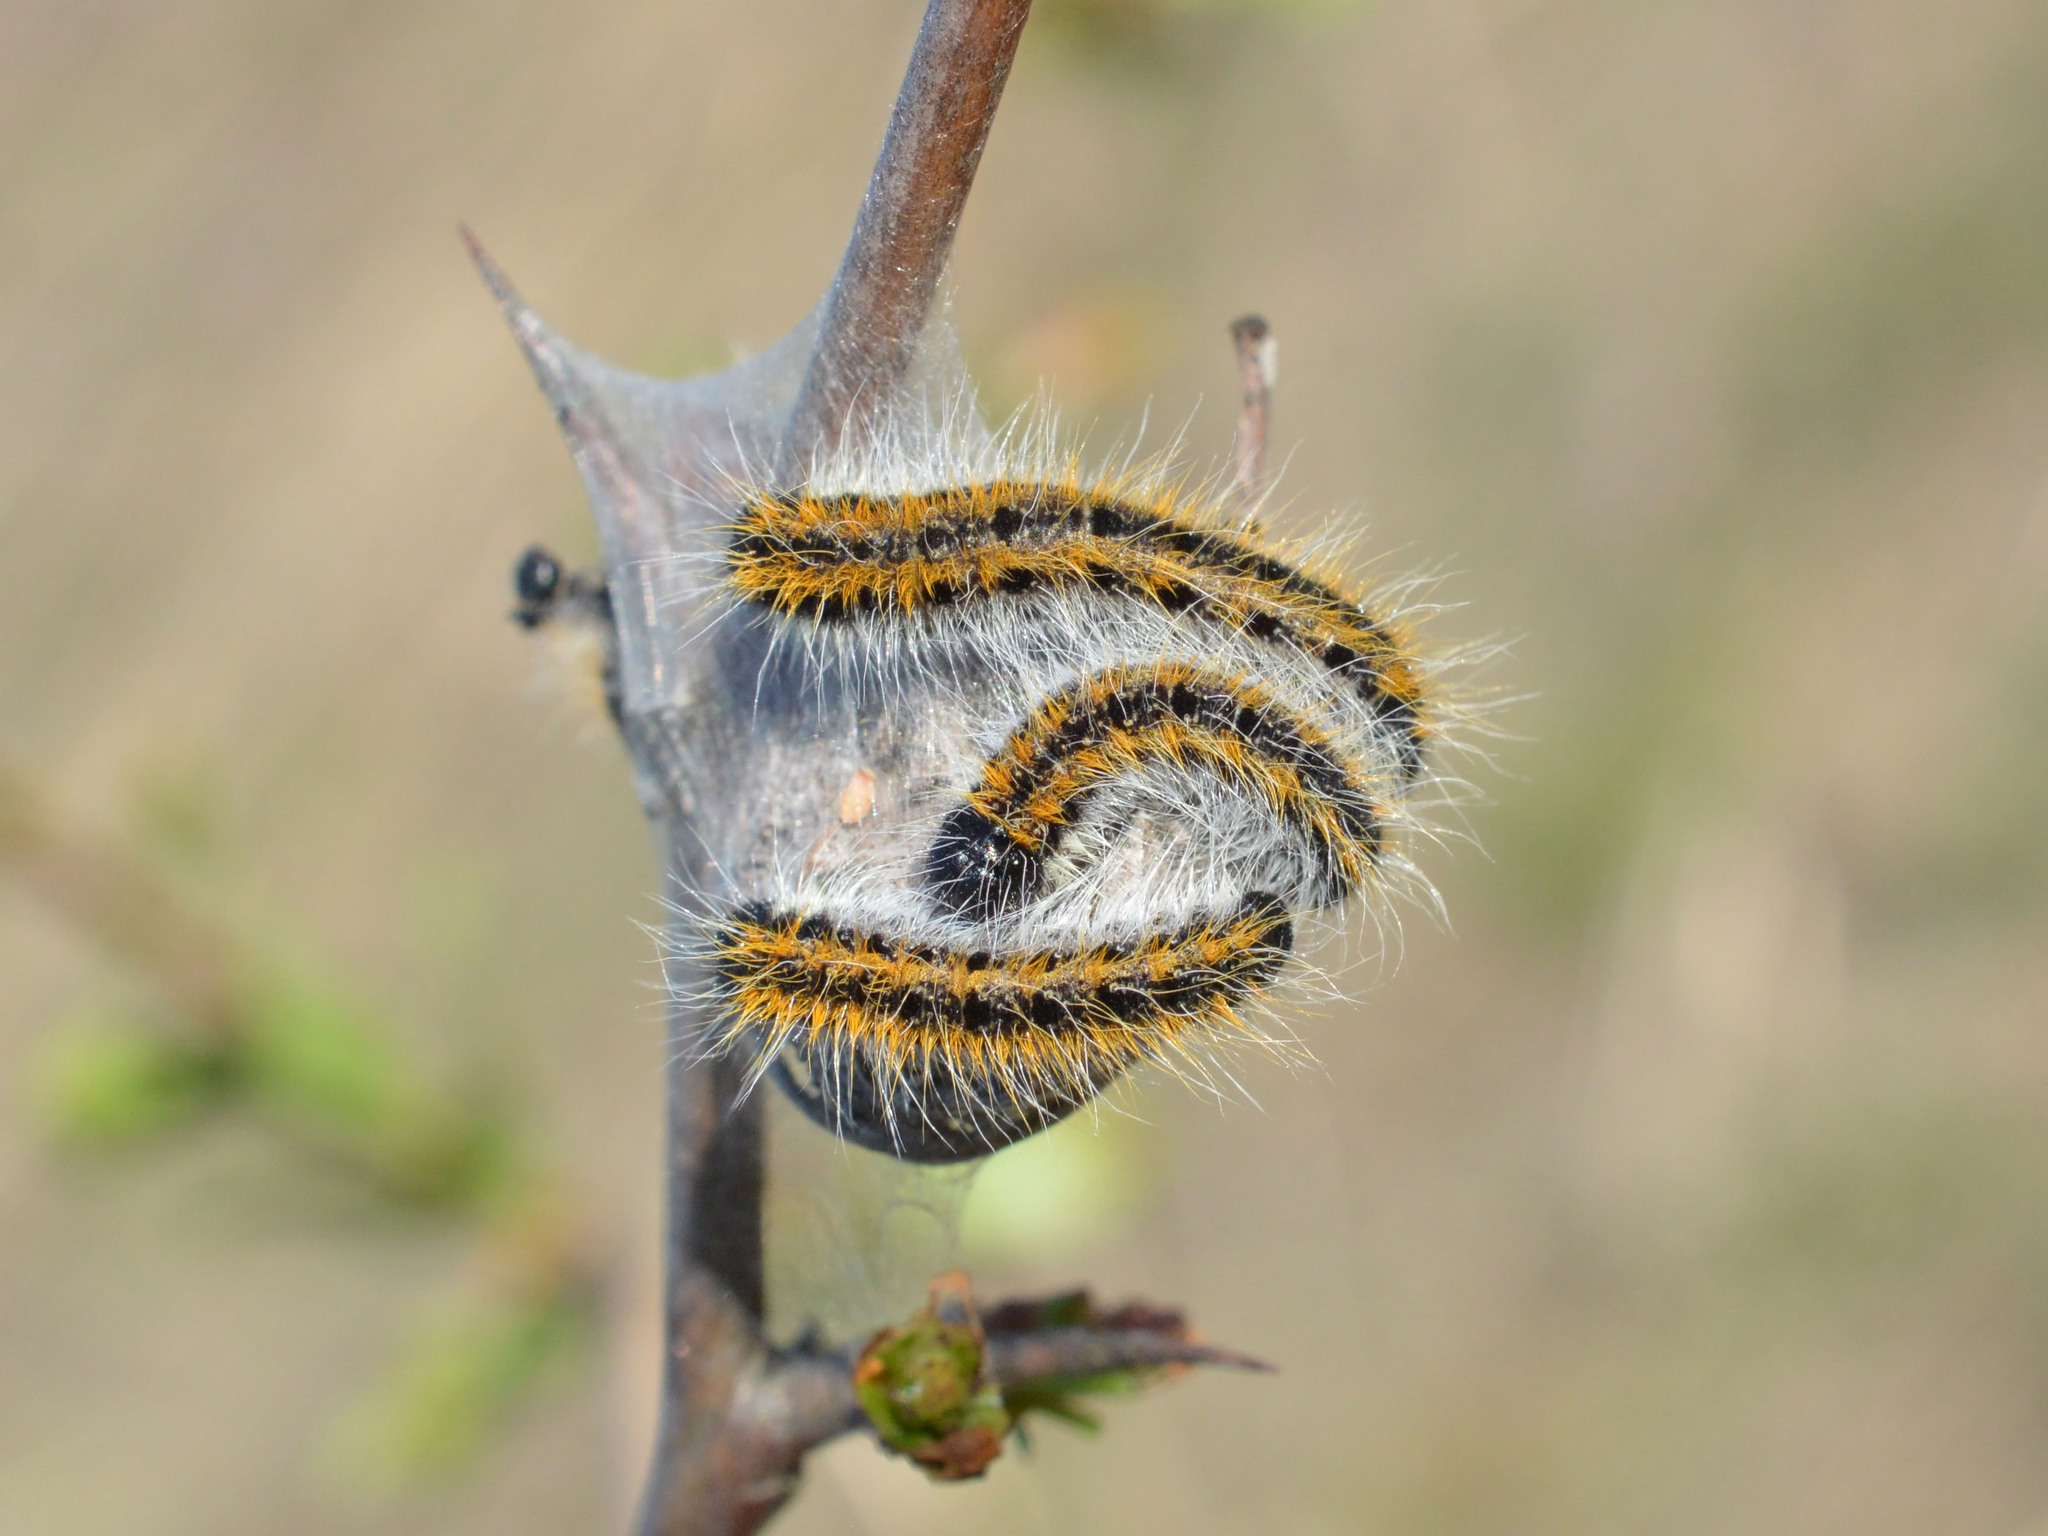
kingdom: Animalia
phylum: Arthropoda
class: Insecta
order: Lepidoptera
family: Pieridae
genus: Aporia
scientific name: Aporia crataegi
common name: Black-veined white
